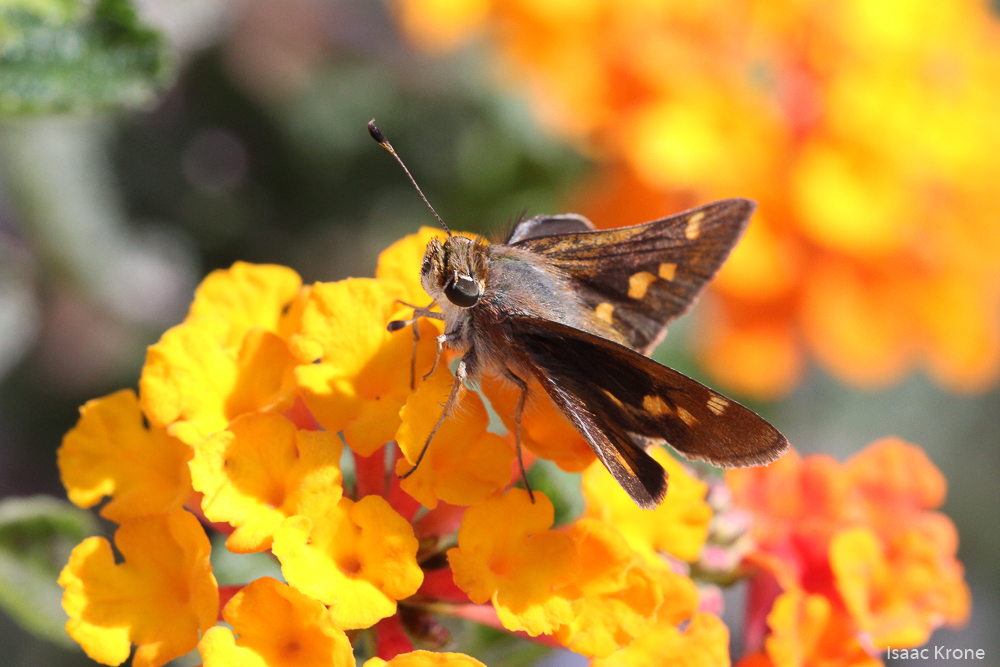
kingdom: Animalia
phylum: Arthropoda
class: Insecta
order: Lepidoptera
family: Hesperiidae
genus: Lon
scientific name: Lon melane
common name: Umber skipper
